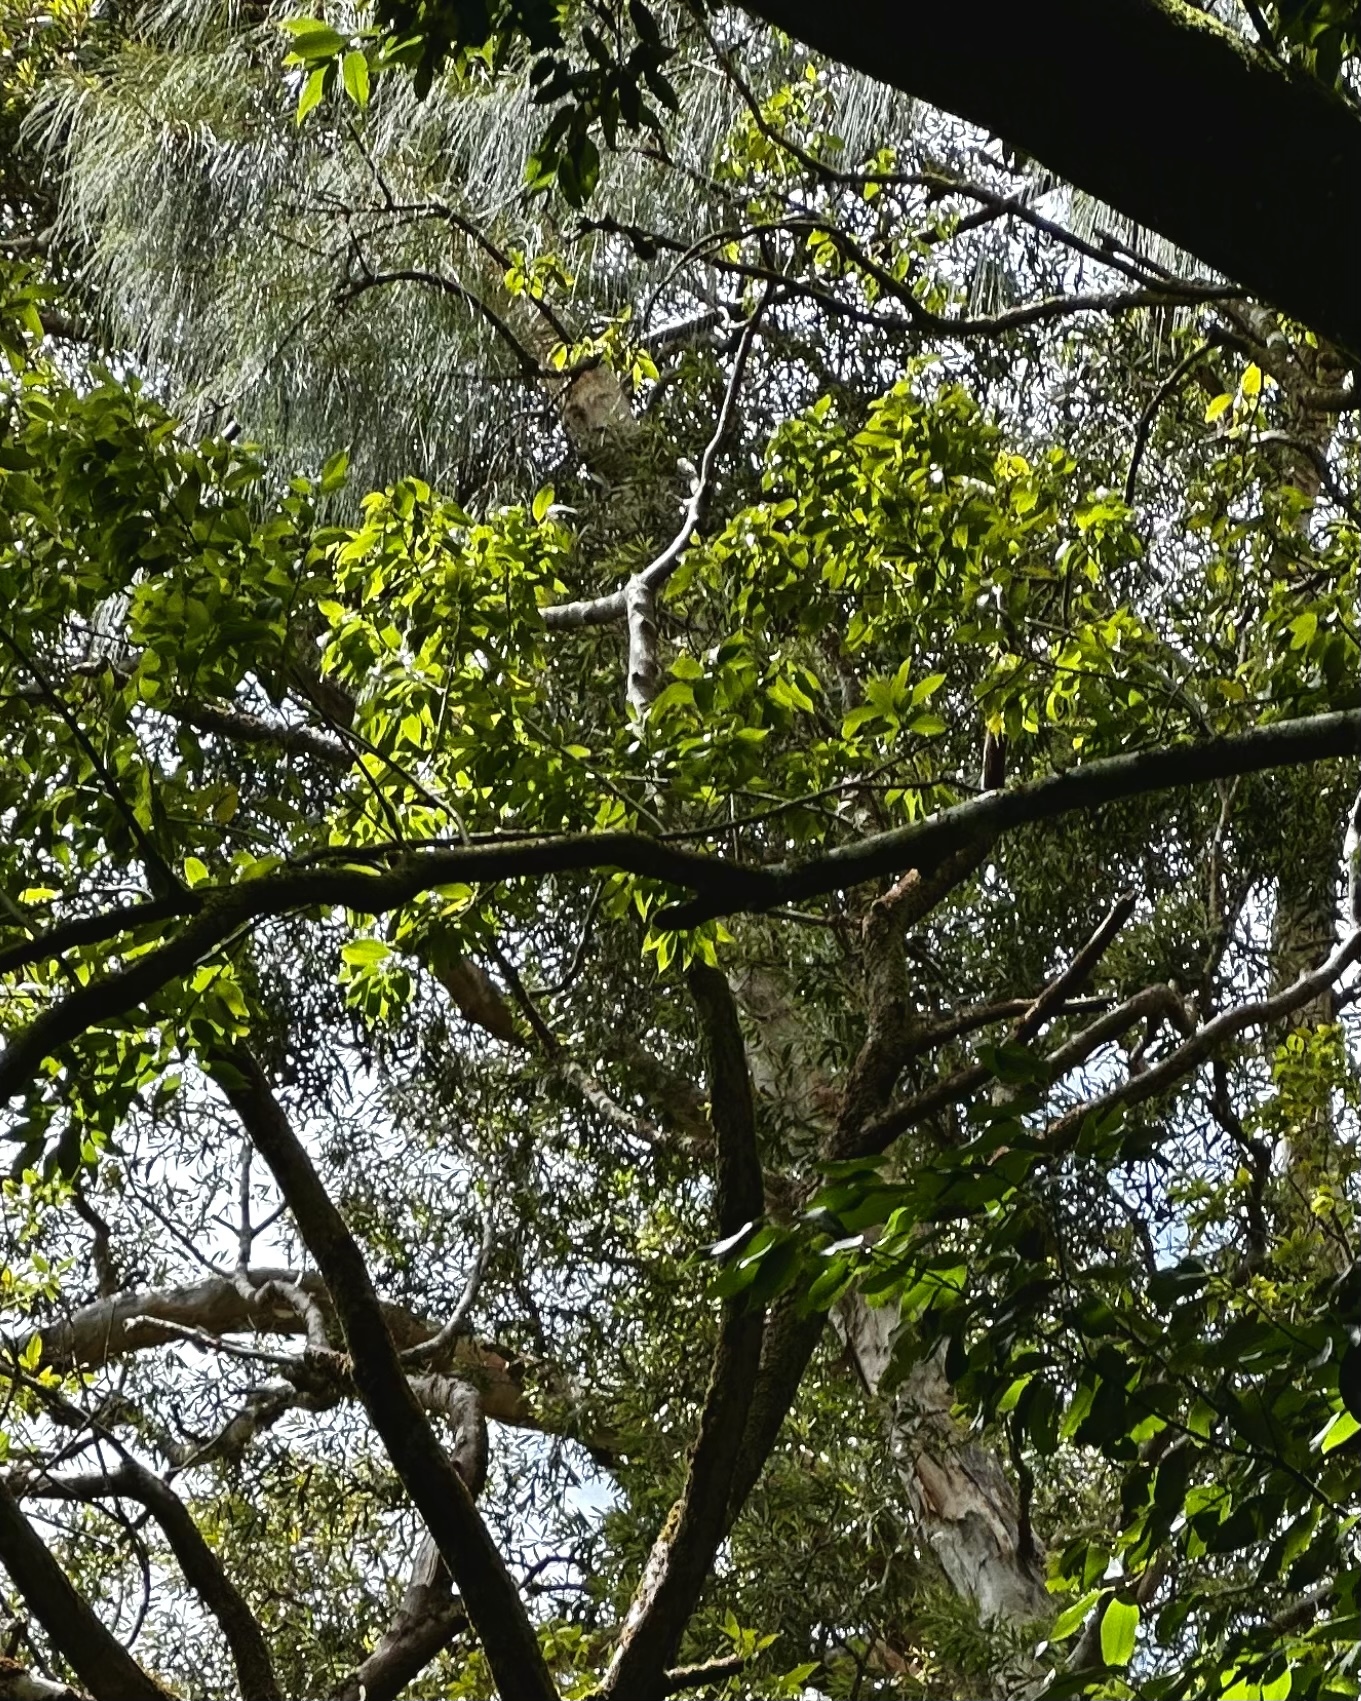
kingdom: Plantae
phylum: Tracheophyta
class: Magnoliopsida
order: Fagales
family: Casuarinaceae
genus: Casuarina
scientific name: Casuarina equisetifolia
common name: Beach sheoak
